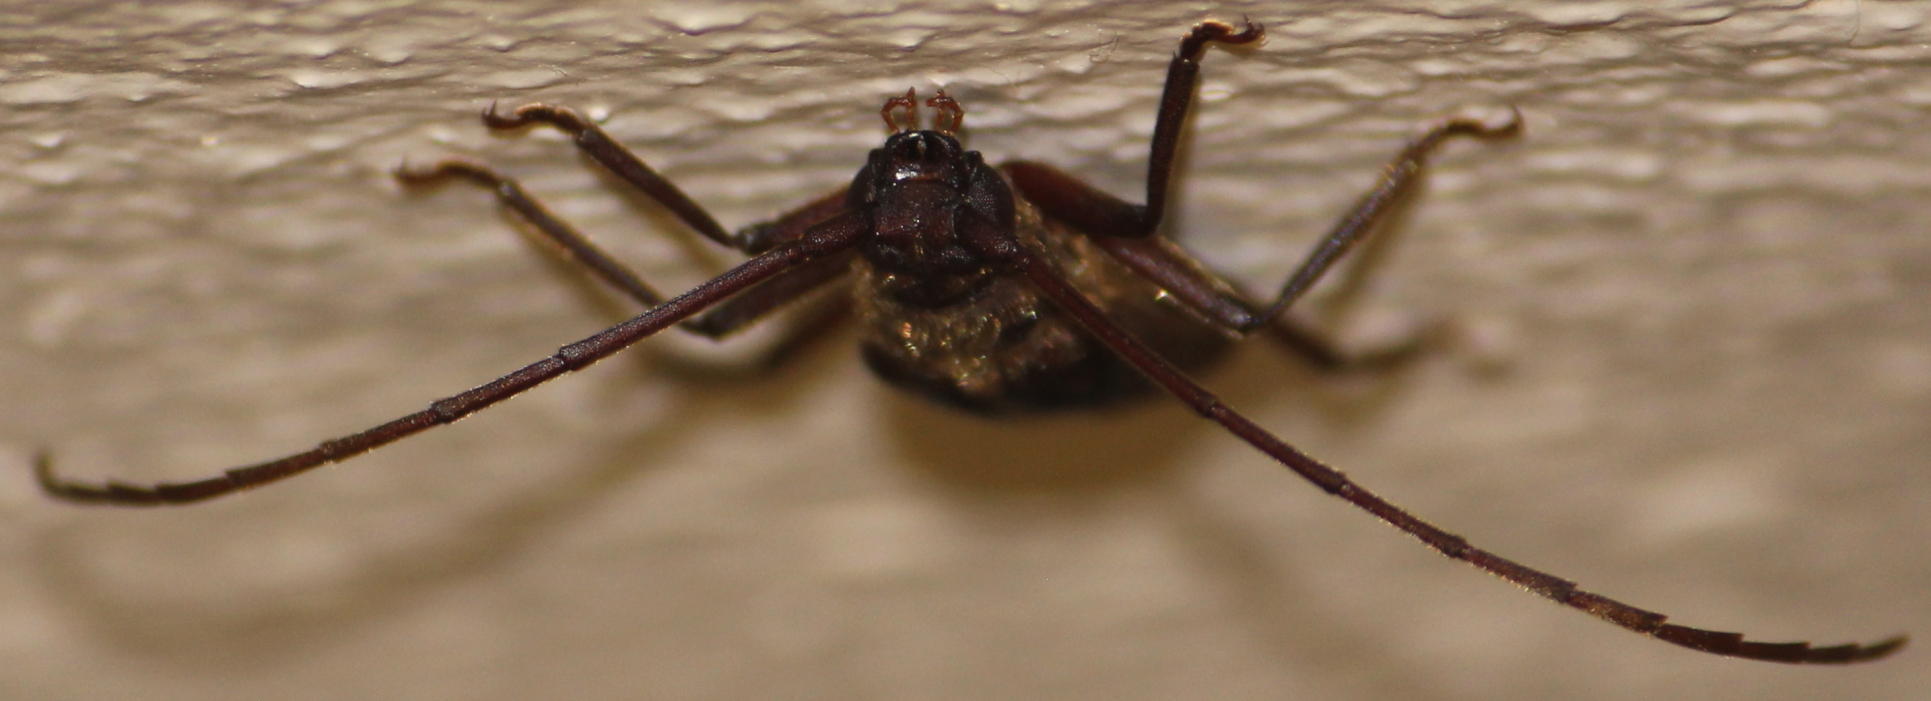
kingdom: Animalia
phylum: Arthropoda
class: Insecta
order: Coleoptera
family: Cerambycidae
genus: Oceanomegopis
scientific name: Oceanomegopis caledonica
